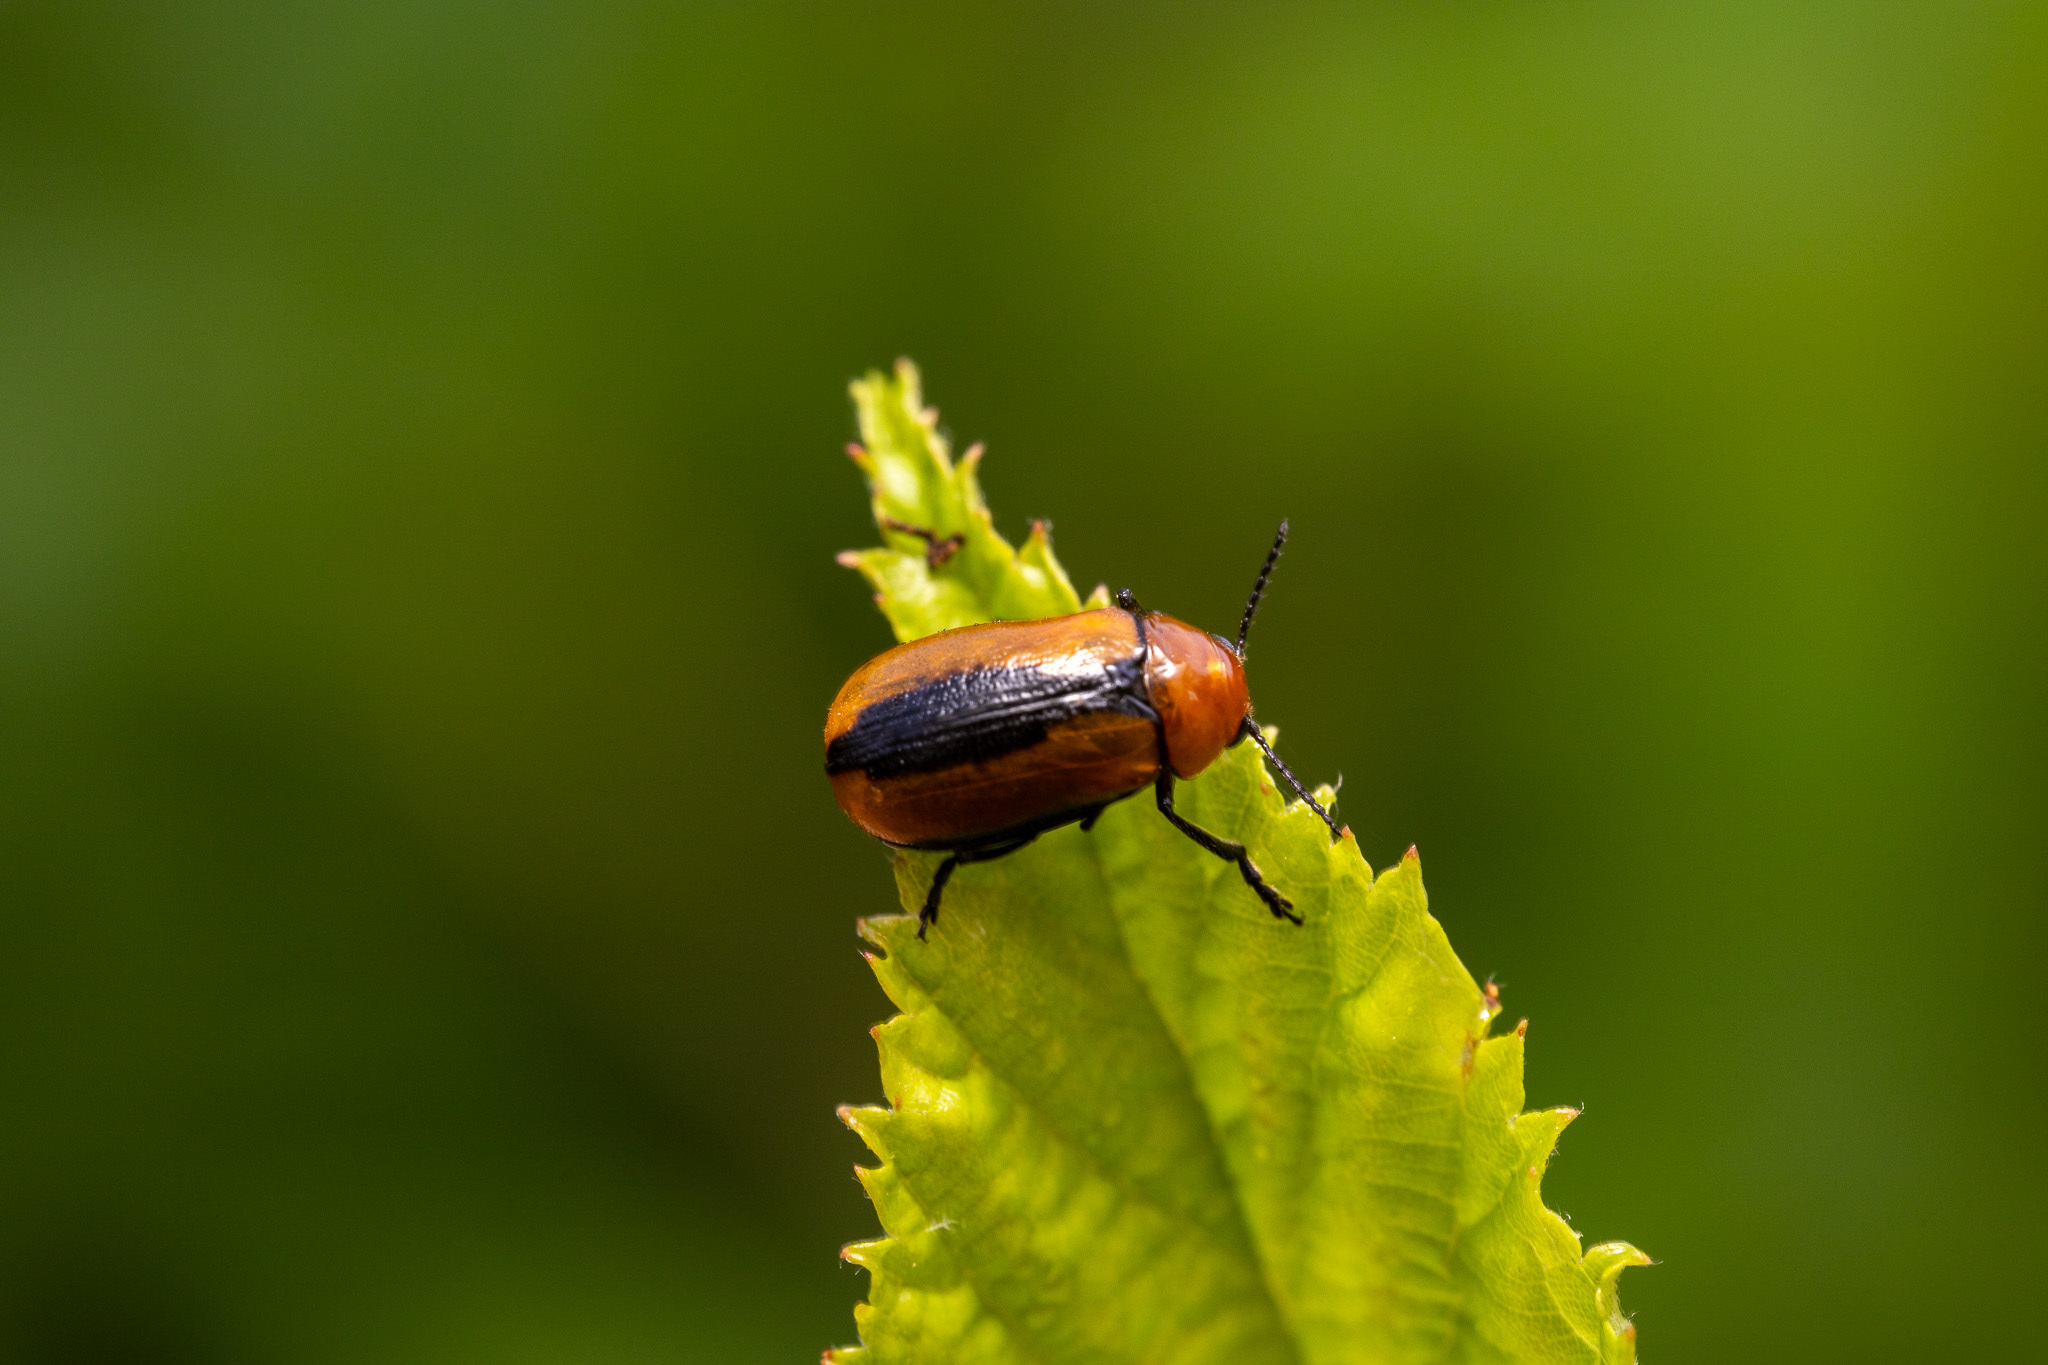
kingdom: Animalia
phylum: Arthropoda
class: Insecta
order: Coleoptera
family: Chrysomelidae
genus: Anomoea
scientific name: Anomoea laticlavia
